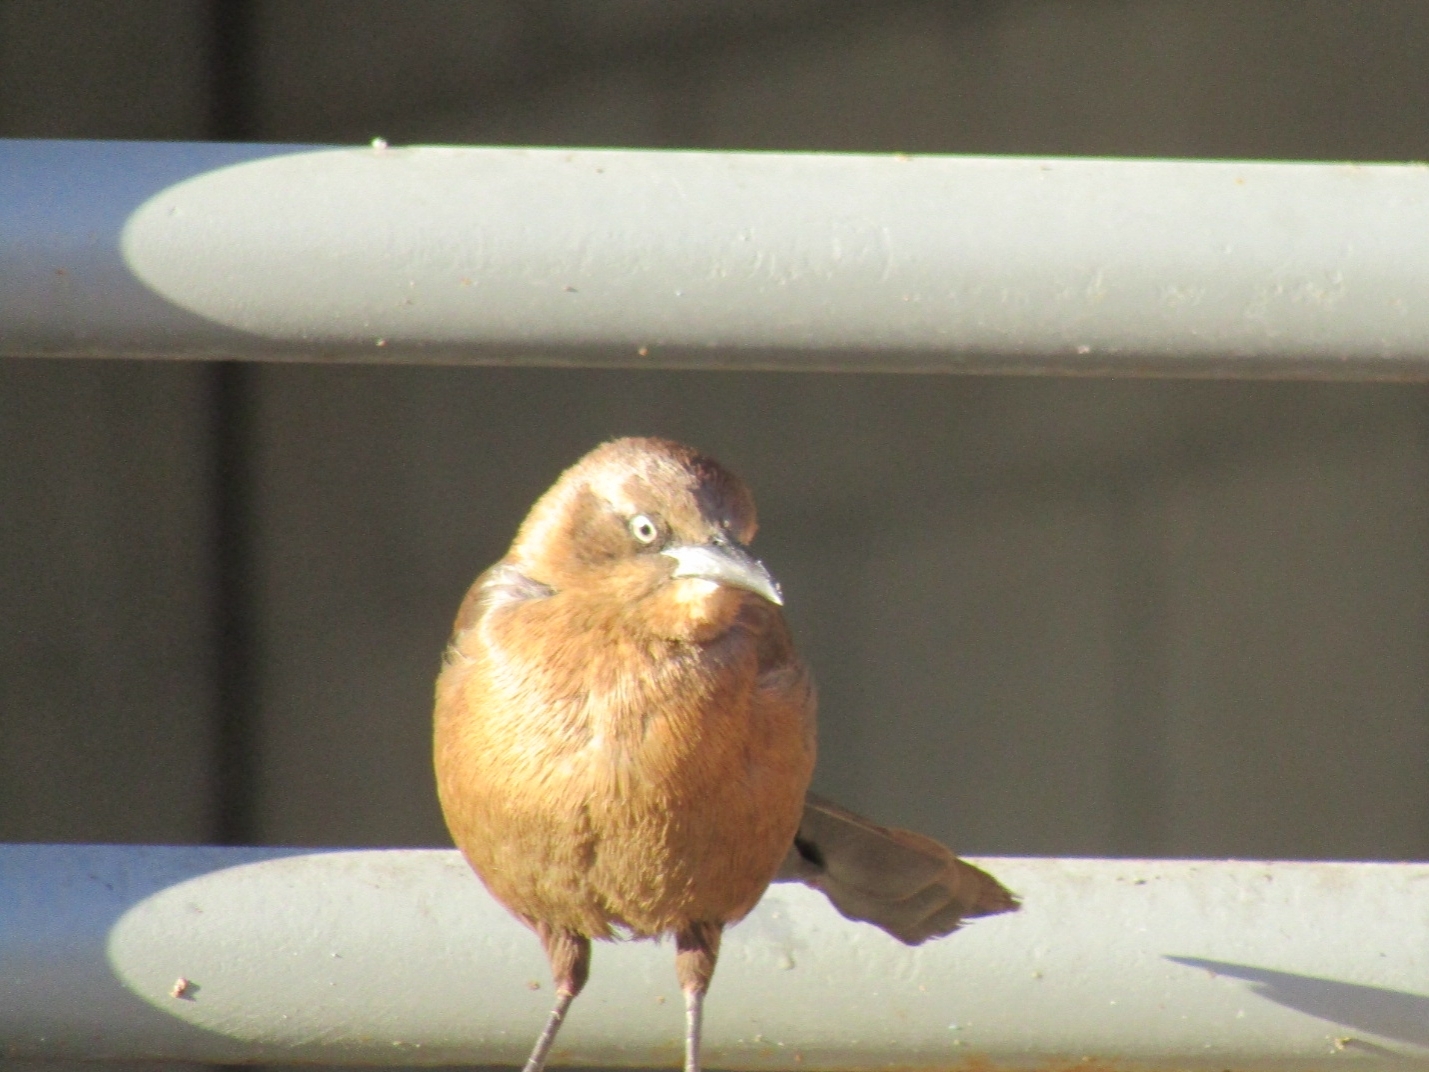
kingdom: Animalia
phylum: Chordata
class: Aves
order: Passeriformes
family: Icteridae
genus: Quiscalus
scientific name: Quiscalus mexicanus
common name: Great-tailed grackle
